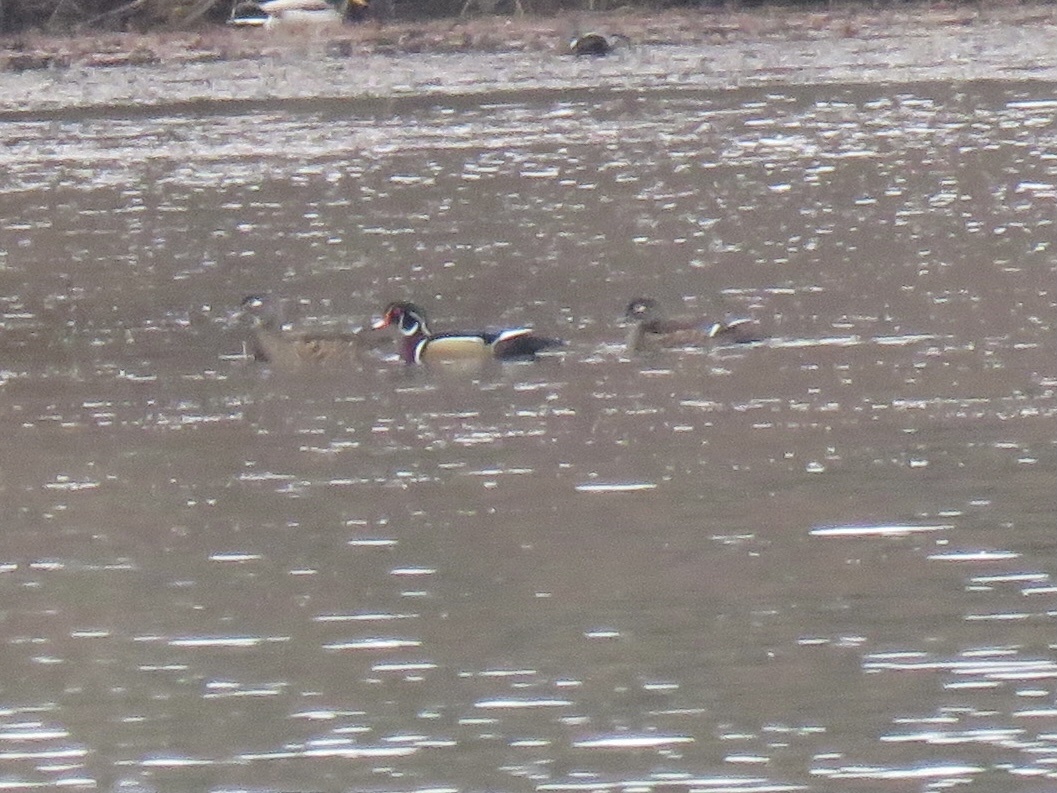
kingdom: Animalia
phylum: Chordata
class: Aves
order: Anseriformes
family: Anatidae
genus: Aix
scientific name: Aix sponsa
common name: Wood duck
